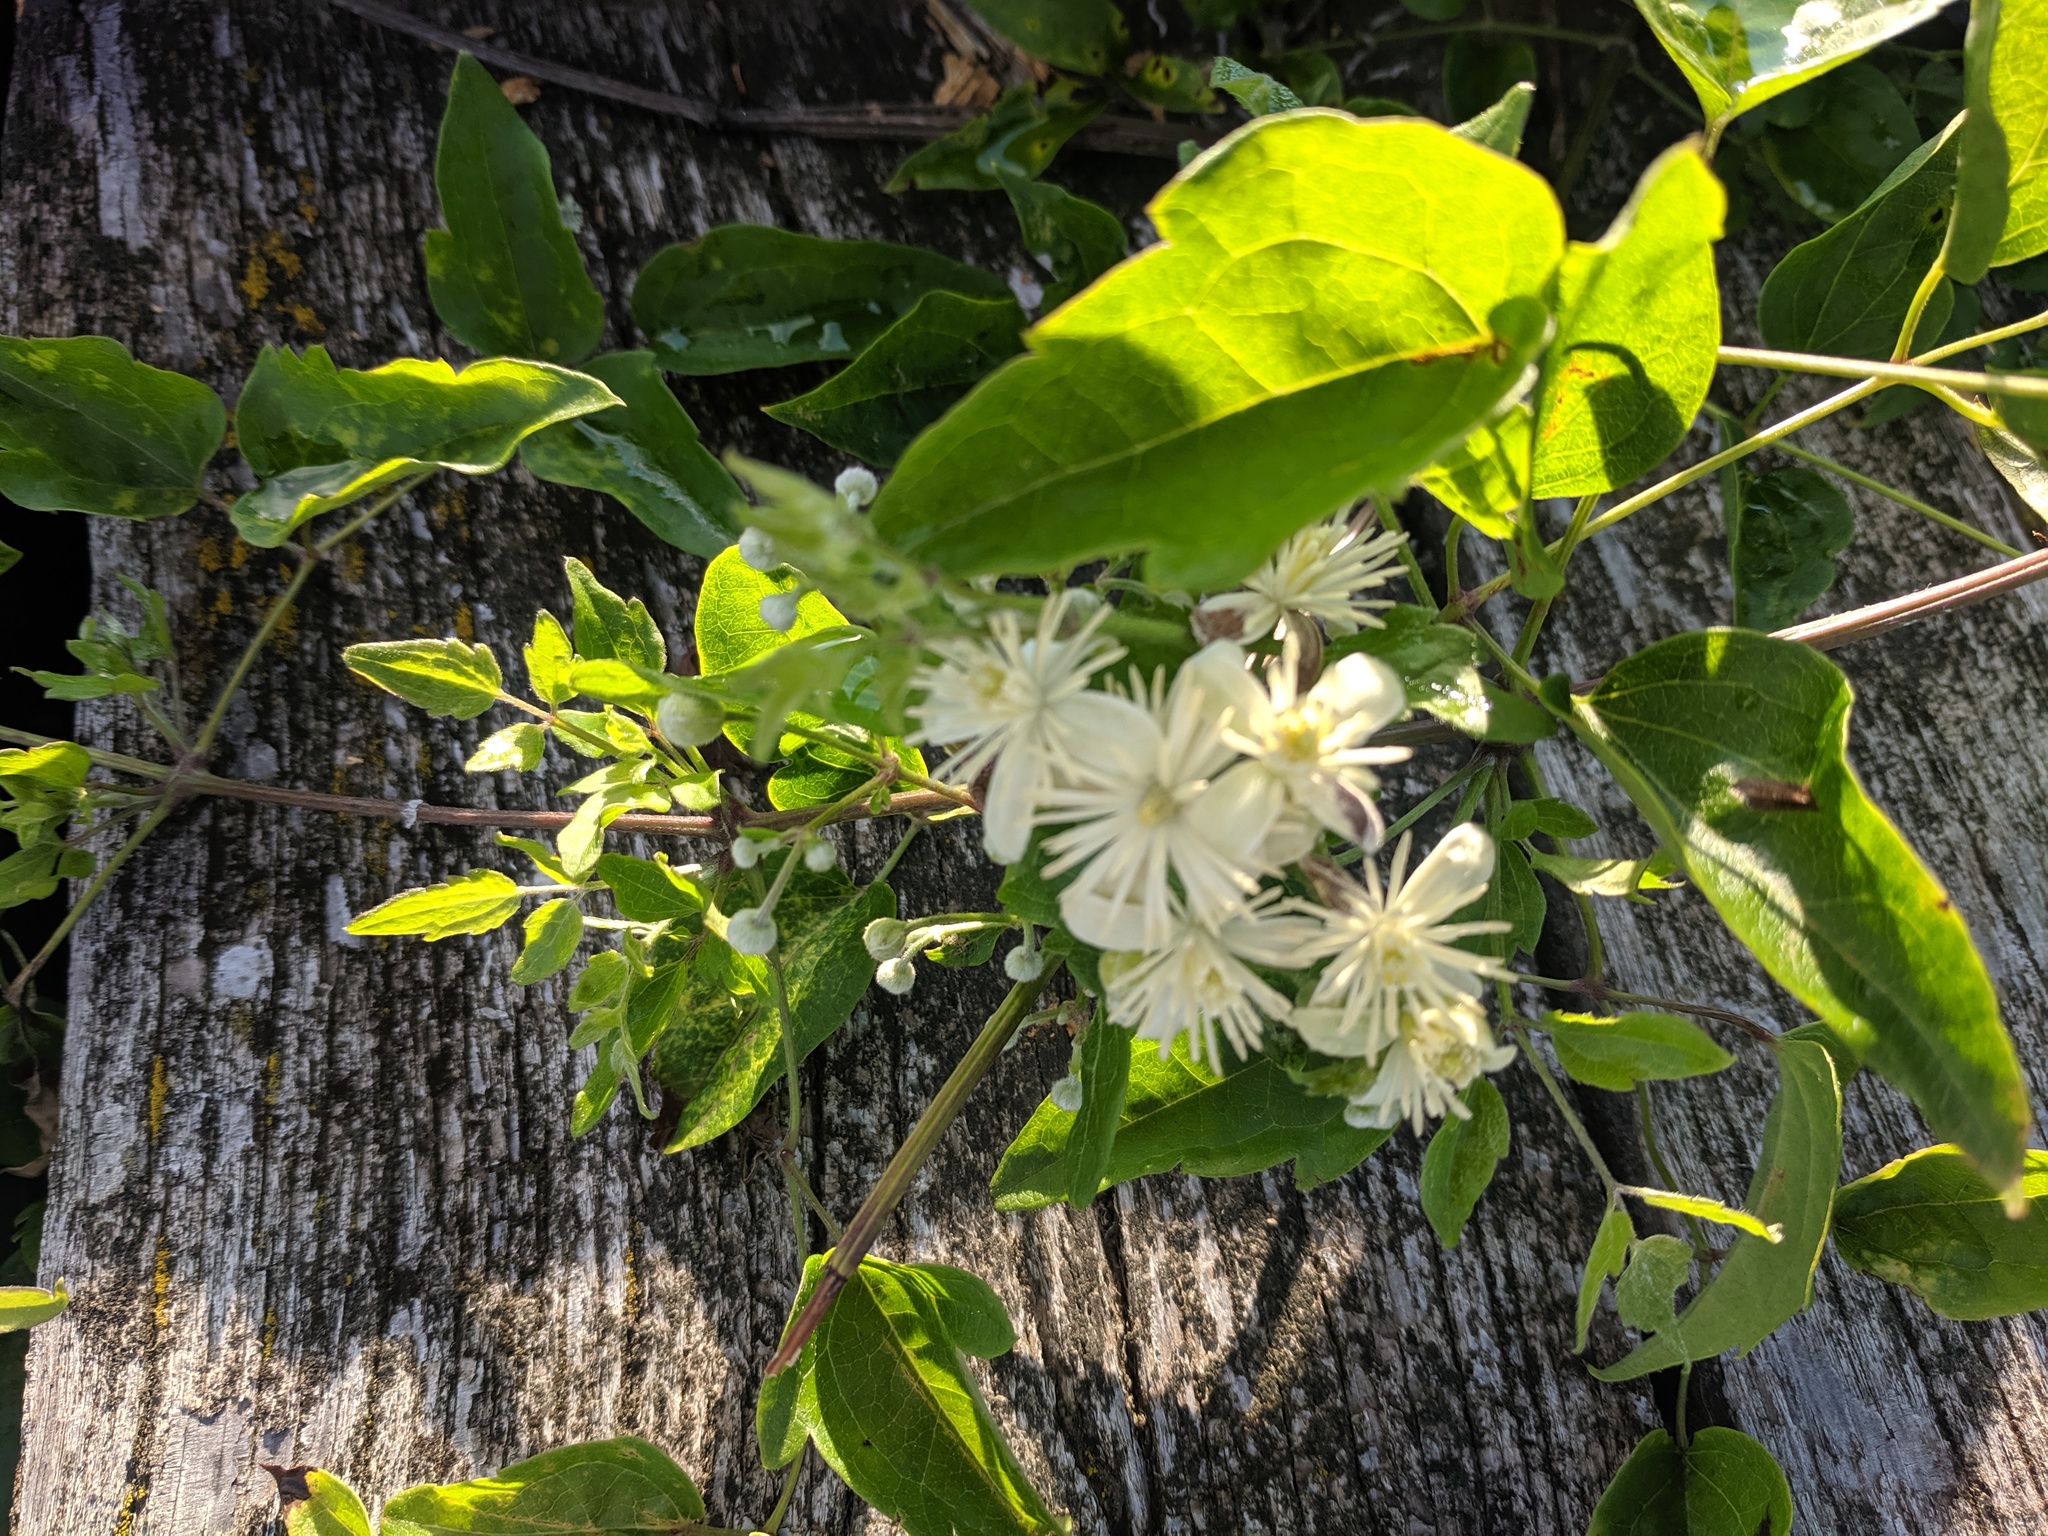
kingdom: Plantae
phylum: Tracheophyta
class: Magnoliopsida
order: Ranunculales
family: Ranunculaceae
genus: Clematis
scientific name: Clematis vitalba
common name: Evergreen clematis
